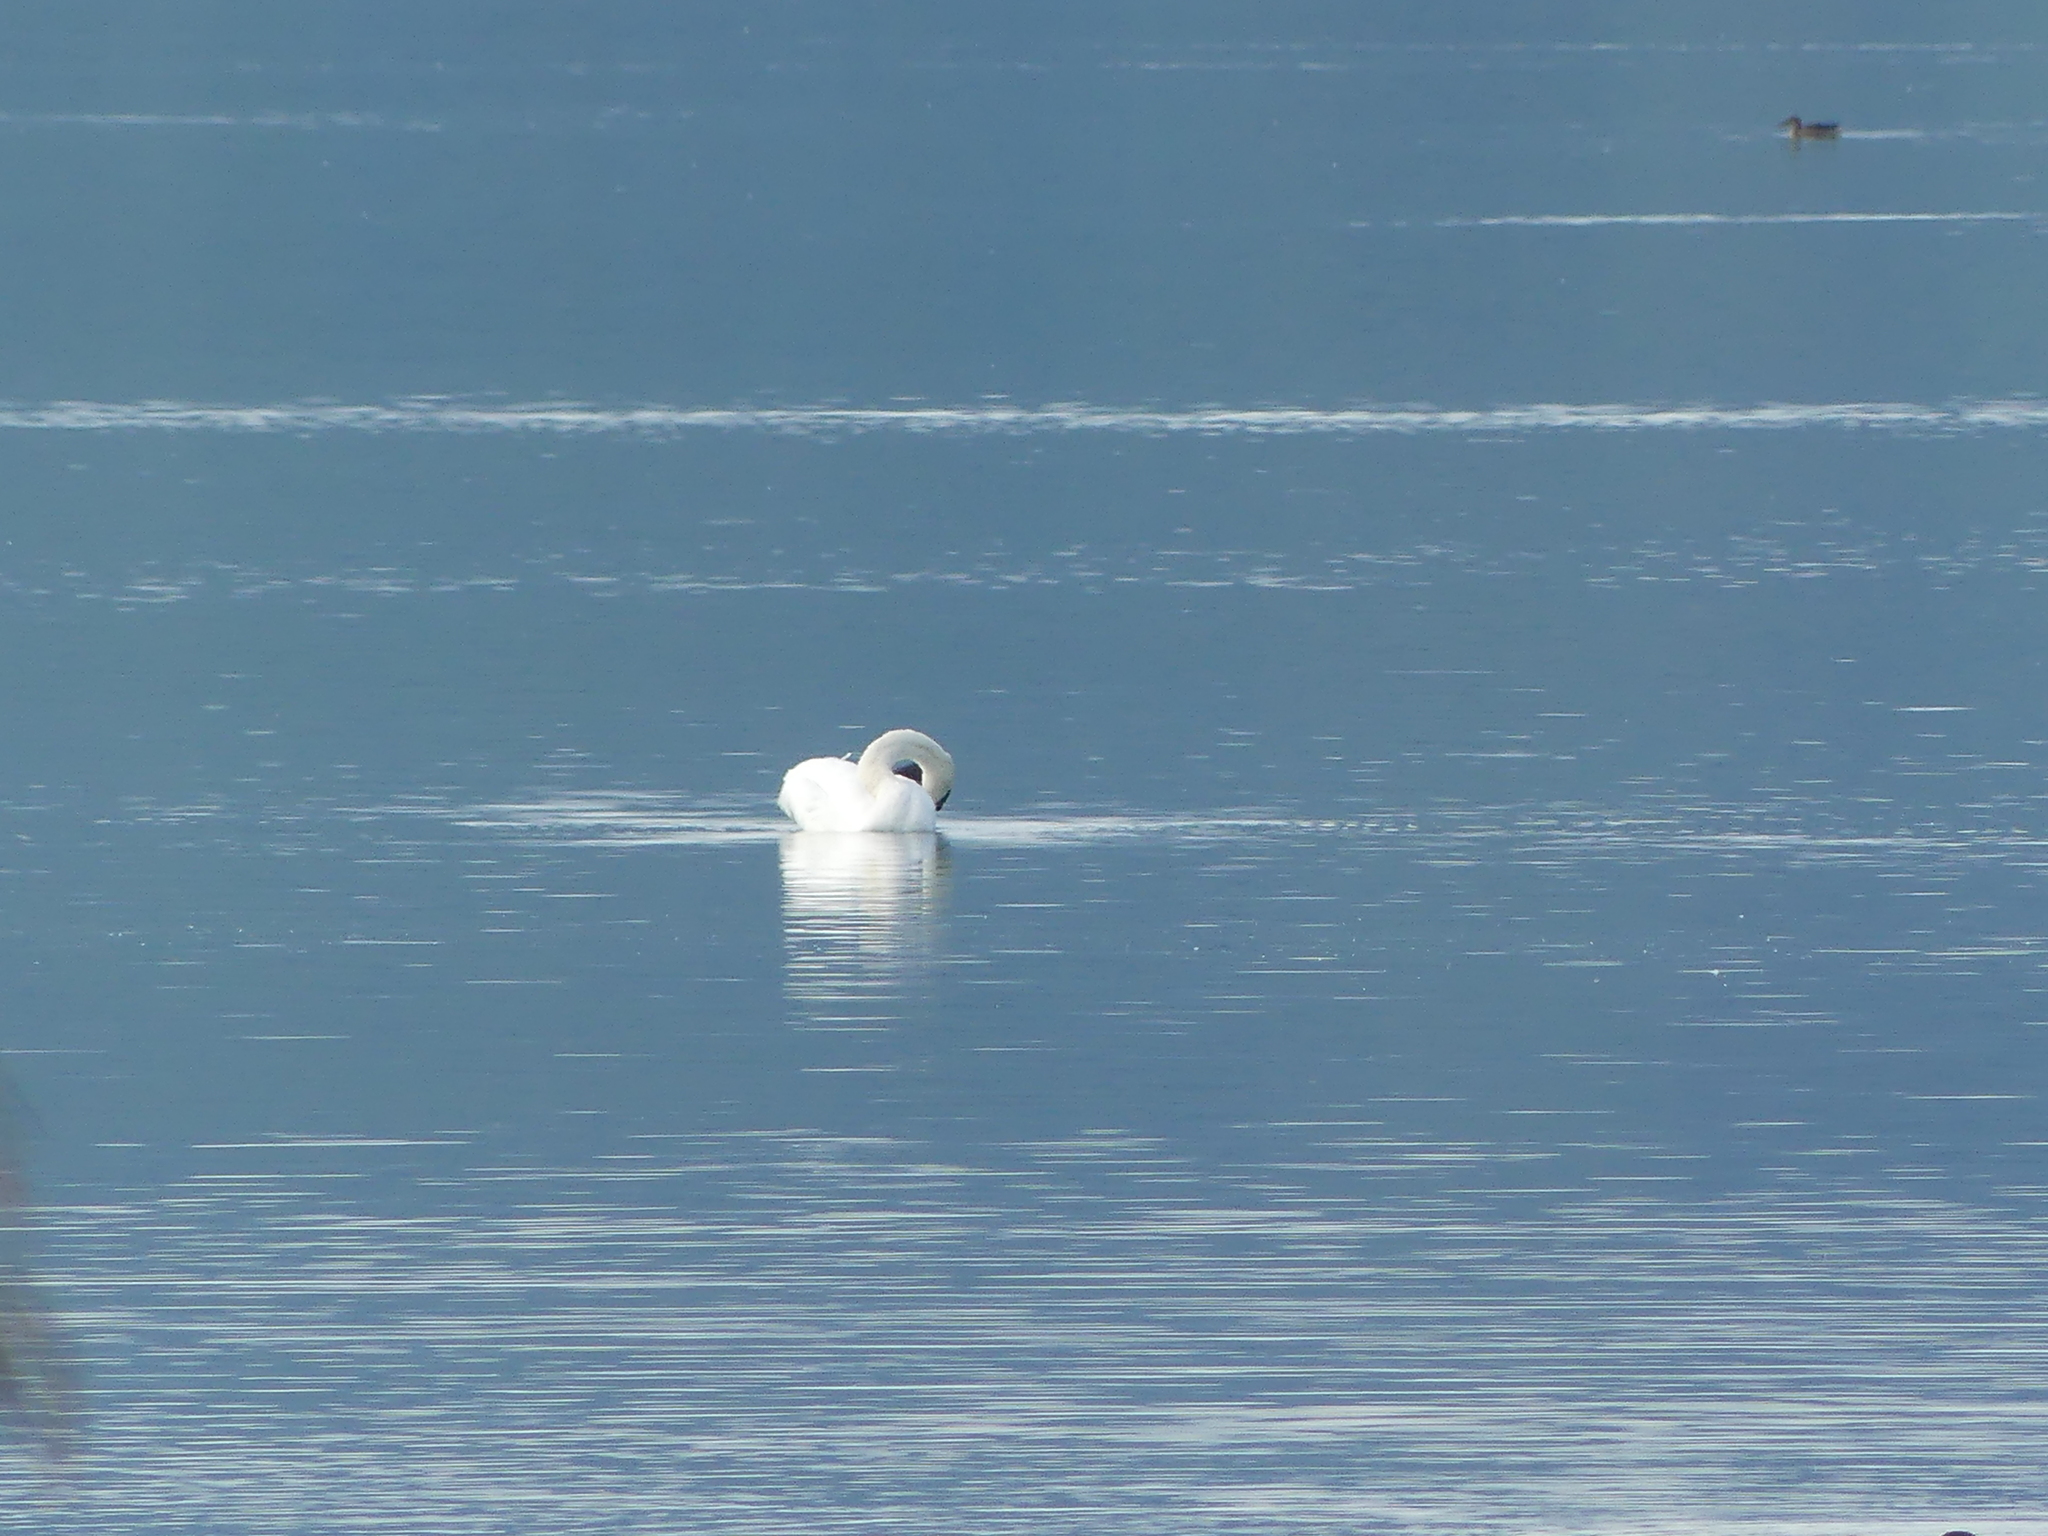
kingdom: Animalia
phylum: Chordata
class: Aves
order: Anseriformes
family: Anatidae
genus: Cygnus
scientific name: Cygnus olor
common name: Mute swan
